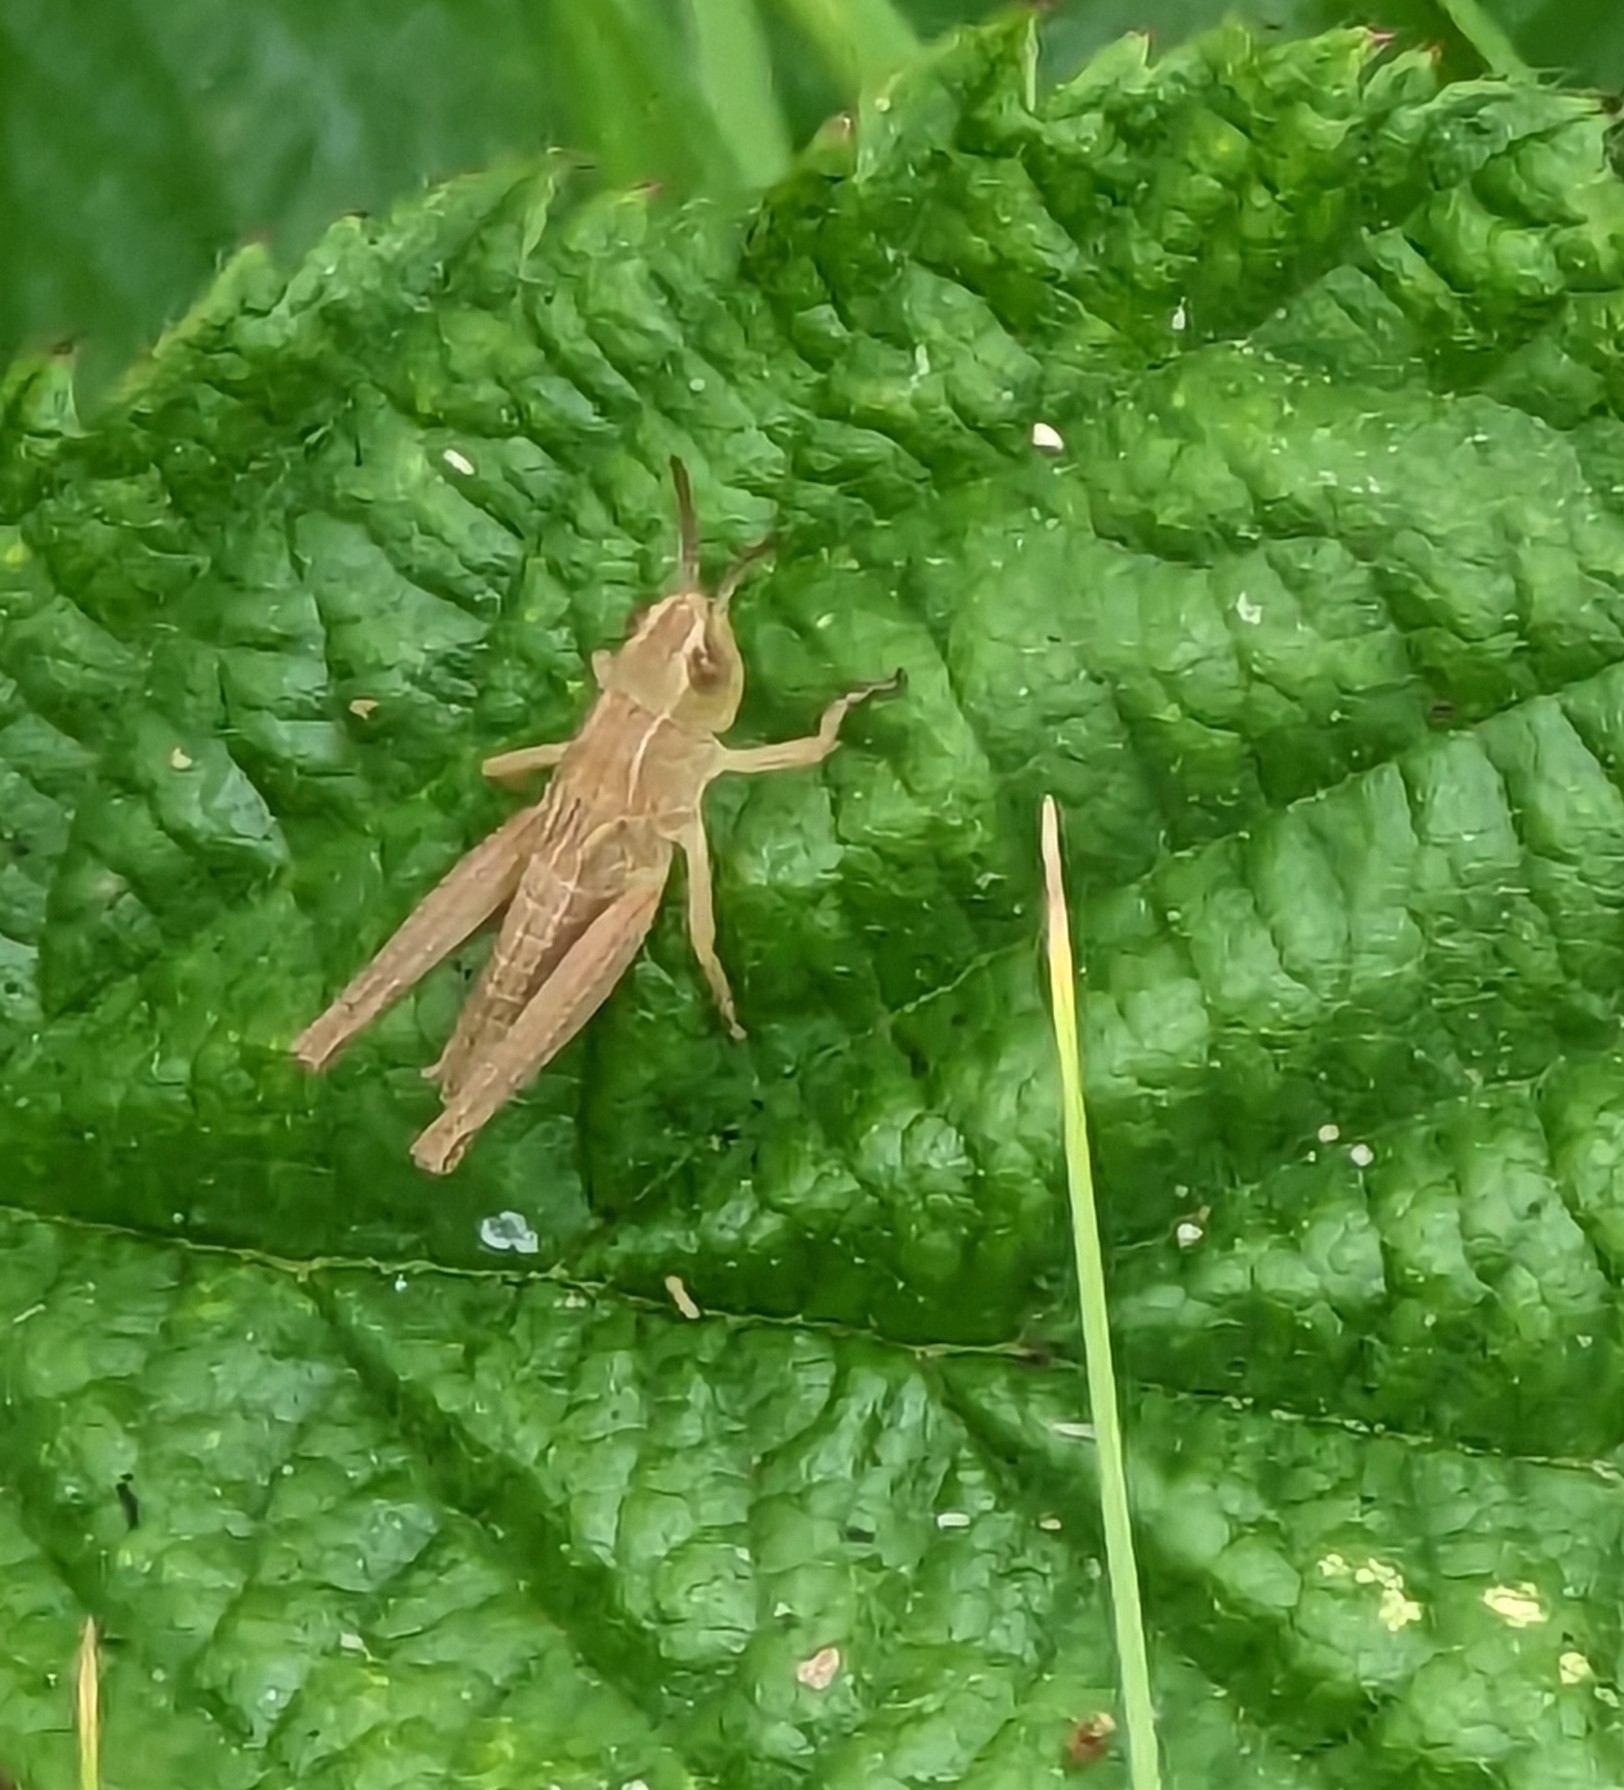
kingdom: Animalia
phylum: Arthropoda
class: Insecta
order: Orthoptera
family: Acrididae
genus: Pseudochorthippus
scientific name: Pseudochorthippus parallelus
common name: Meadow grasshopper
